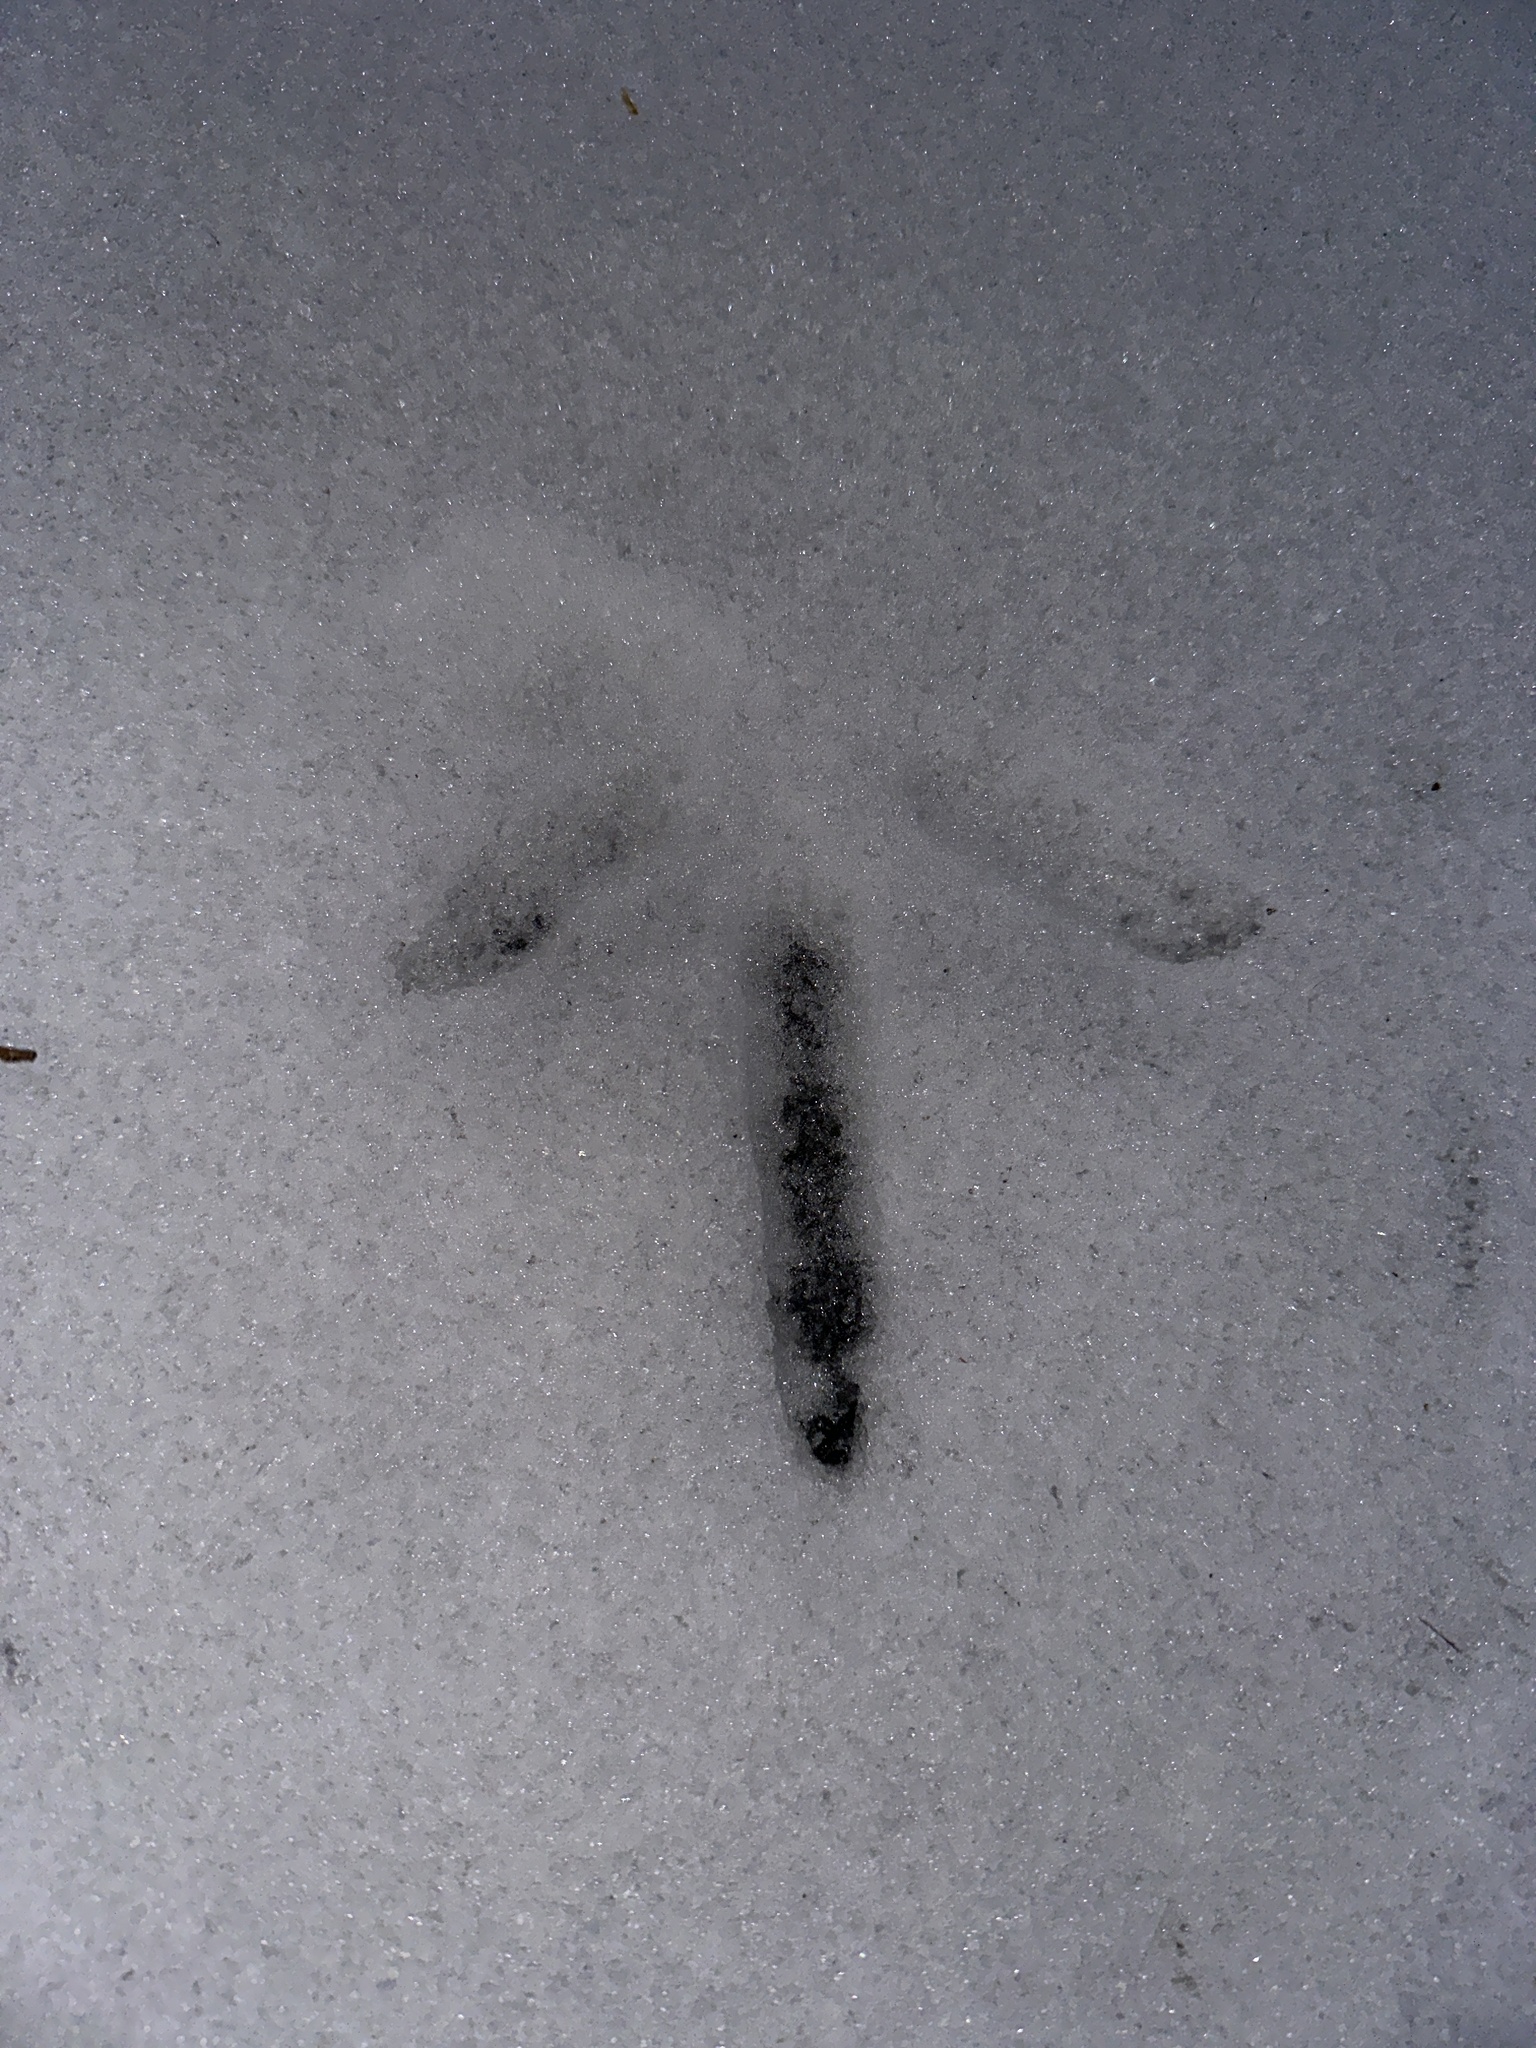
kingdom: Animalia
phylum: Chordata
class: Aves
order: Galliformes
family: Phasianidae
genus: Meleagris
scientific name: Meleagris gallopavo
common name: Wild turkey
